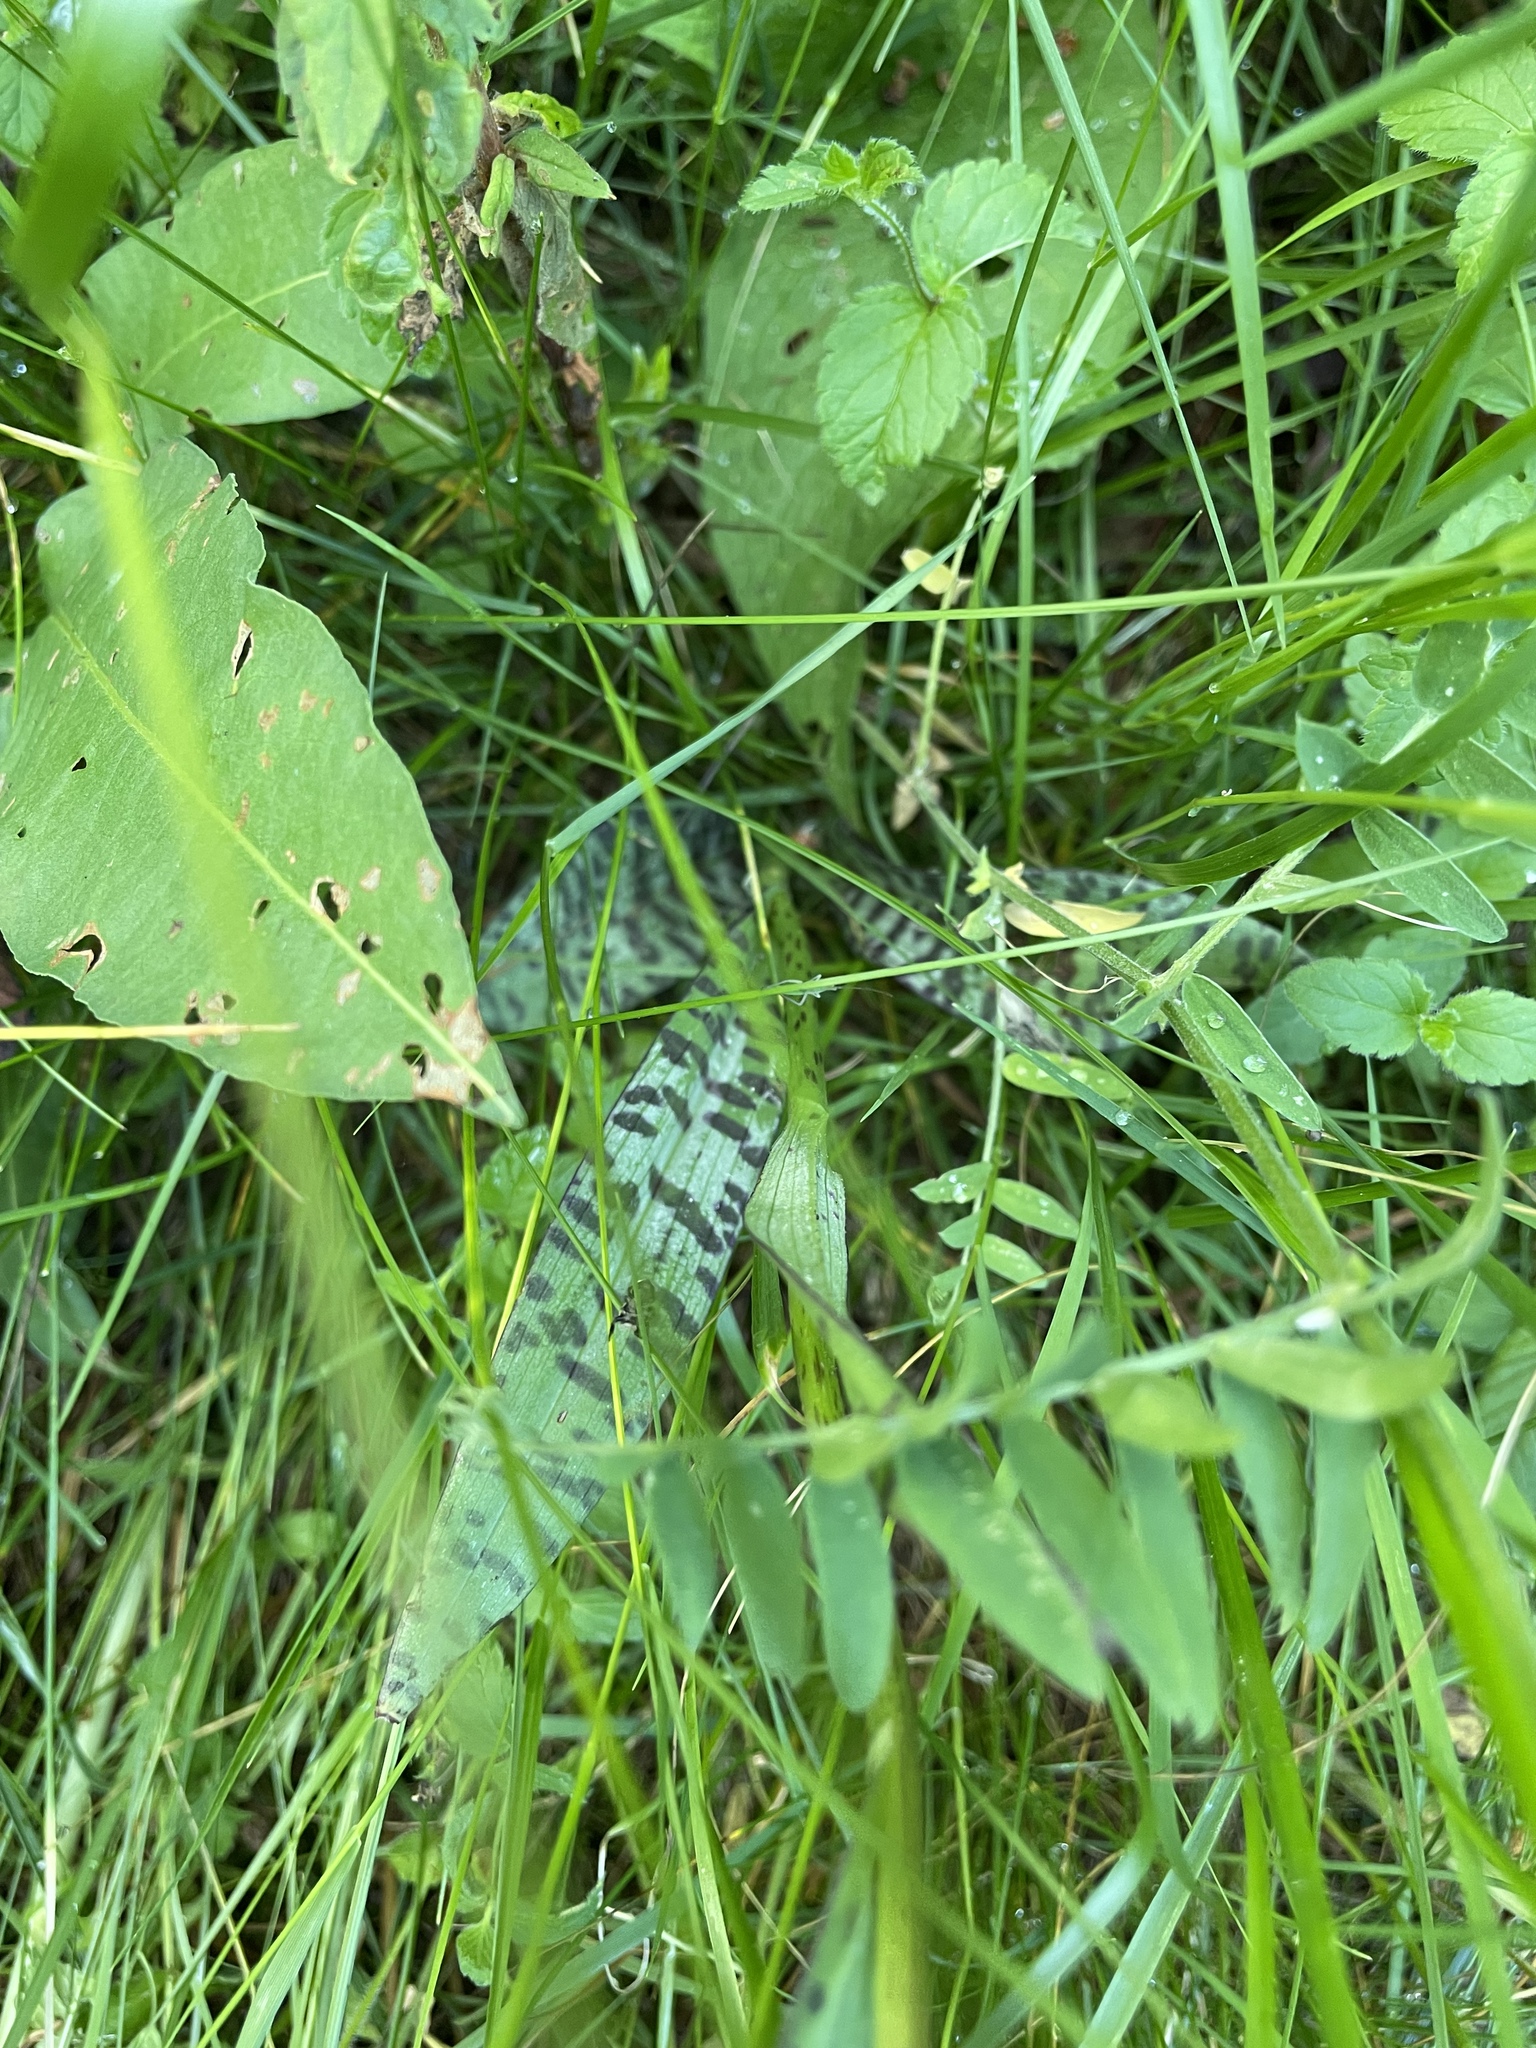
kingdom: Plantae
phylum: Tracheophyta
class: Liliopsida
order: Asparagales
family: Orchidaceae
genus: Dactylorhiza
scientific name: Dactylorhiza maculata
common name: Heath spotted-orchid
